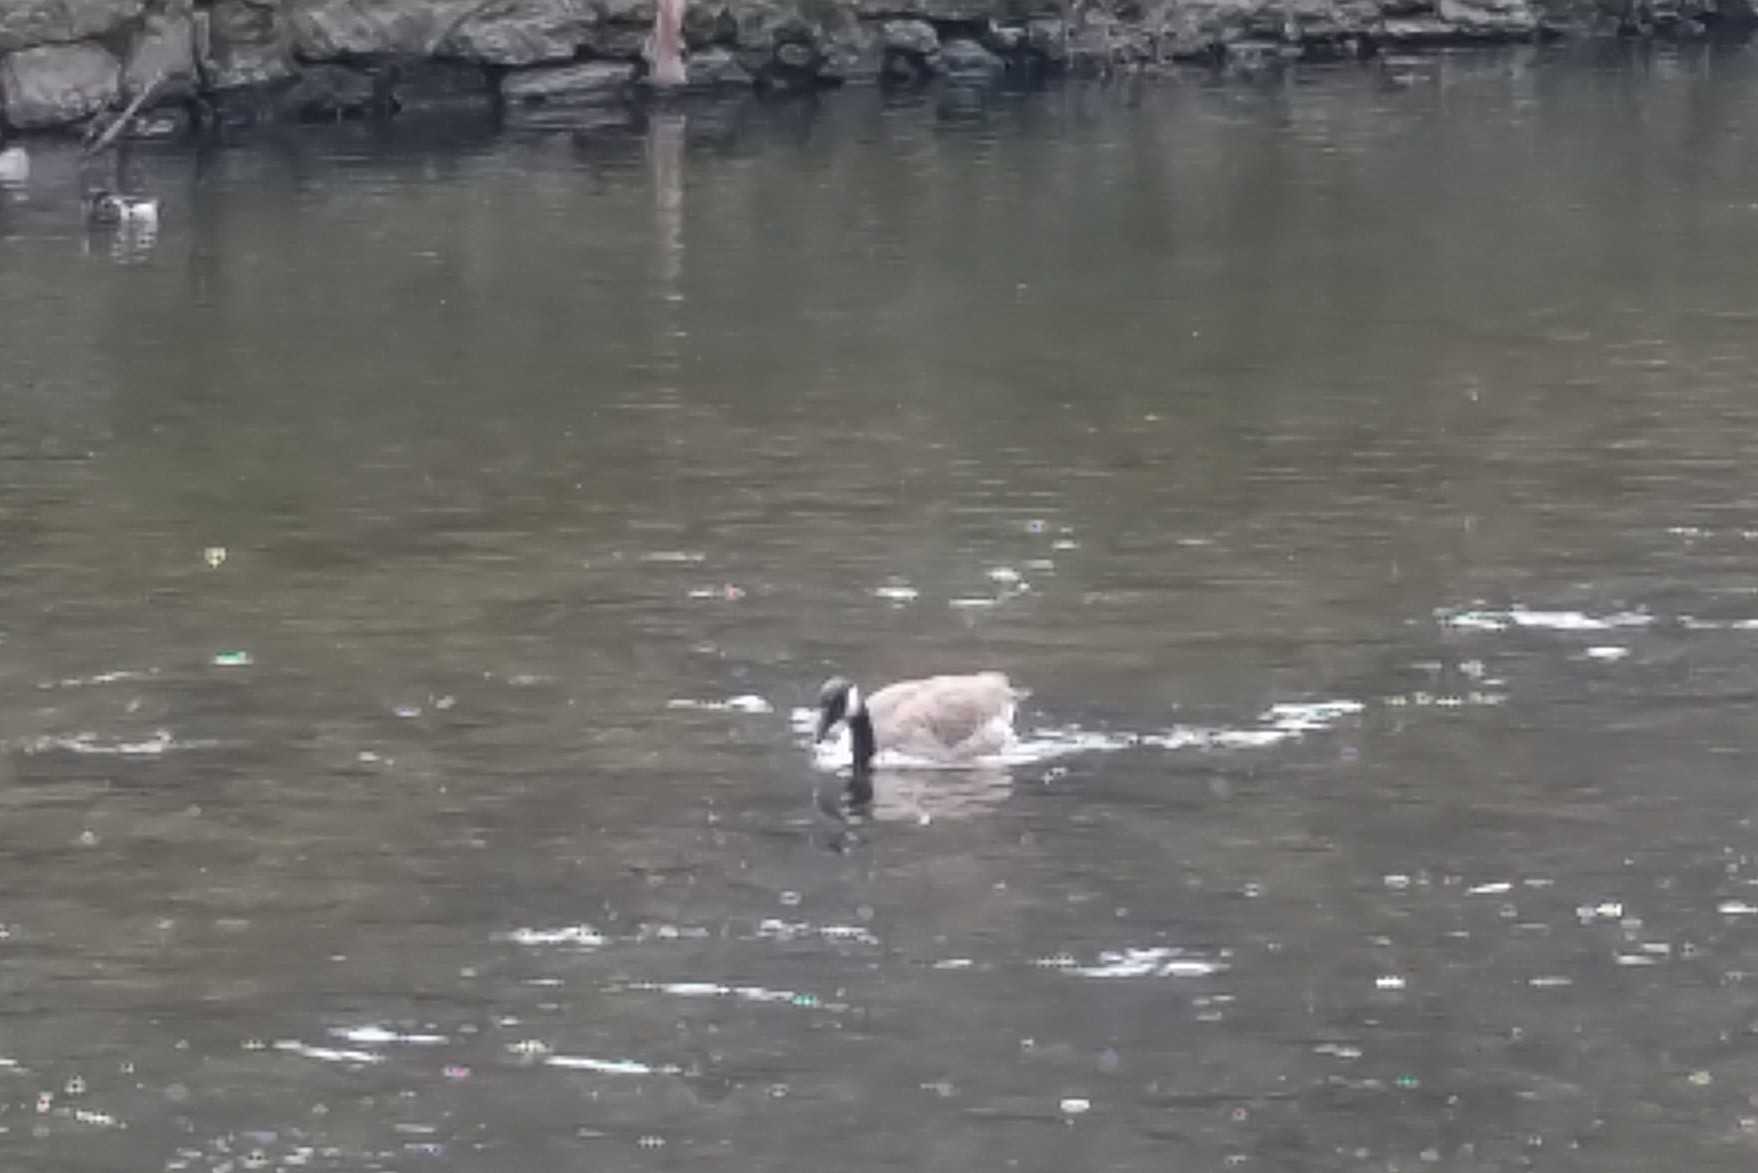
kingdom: Animalia
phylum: Chordata
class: Aves
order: Anseriformes
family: Anatidae
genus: Branta
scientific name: Branta canadensis
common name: Canada goose
